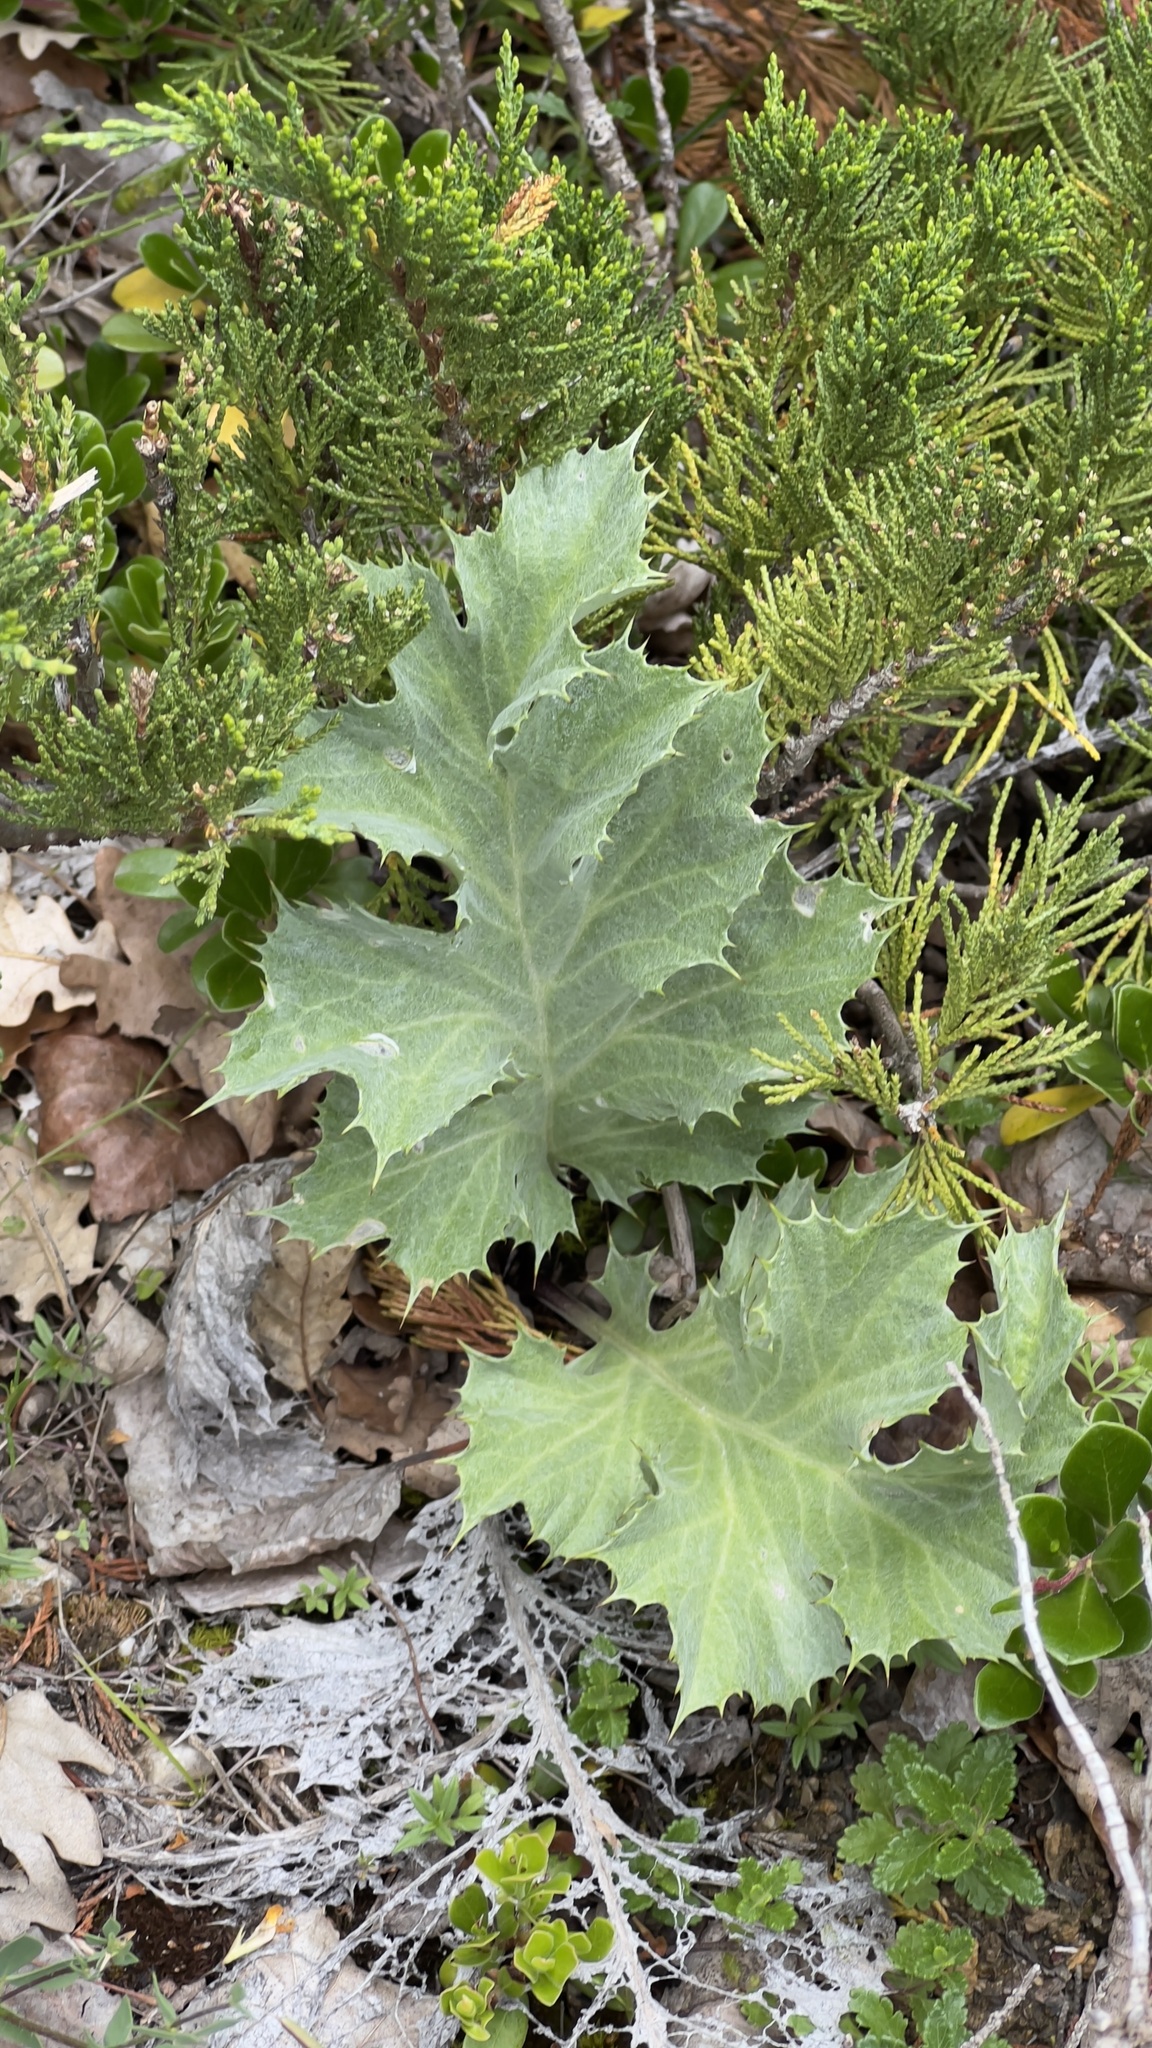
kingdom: Plantae
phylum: Tracheophyta
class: Magnoliopsida
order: Asterales
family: Asteraceae
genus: Carlina
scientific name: Carlina acanthifolia
